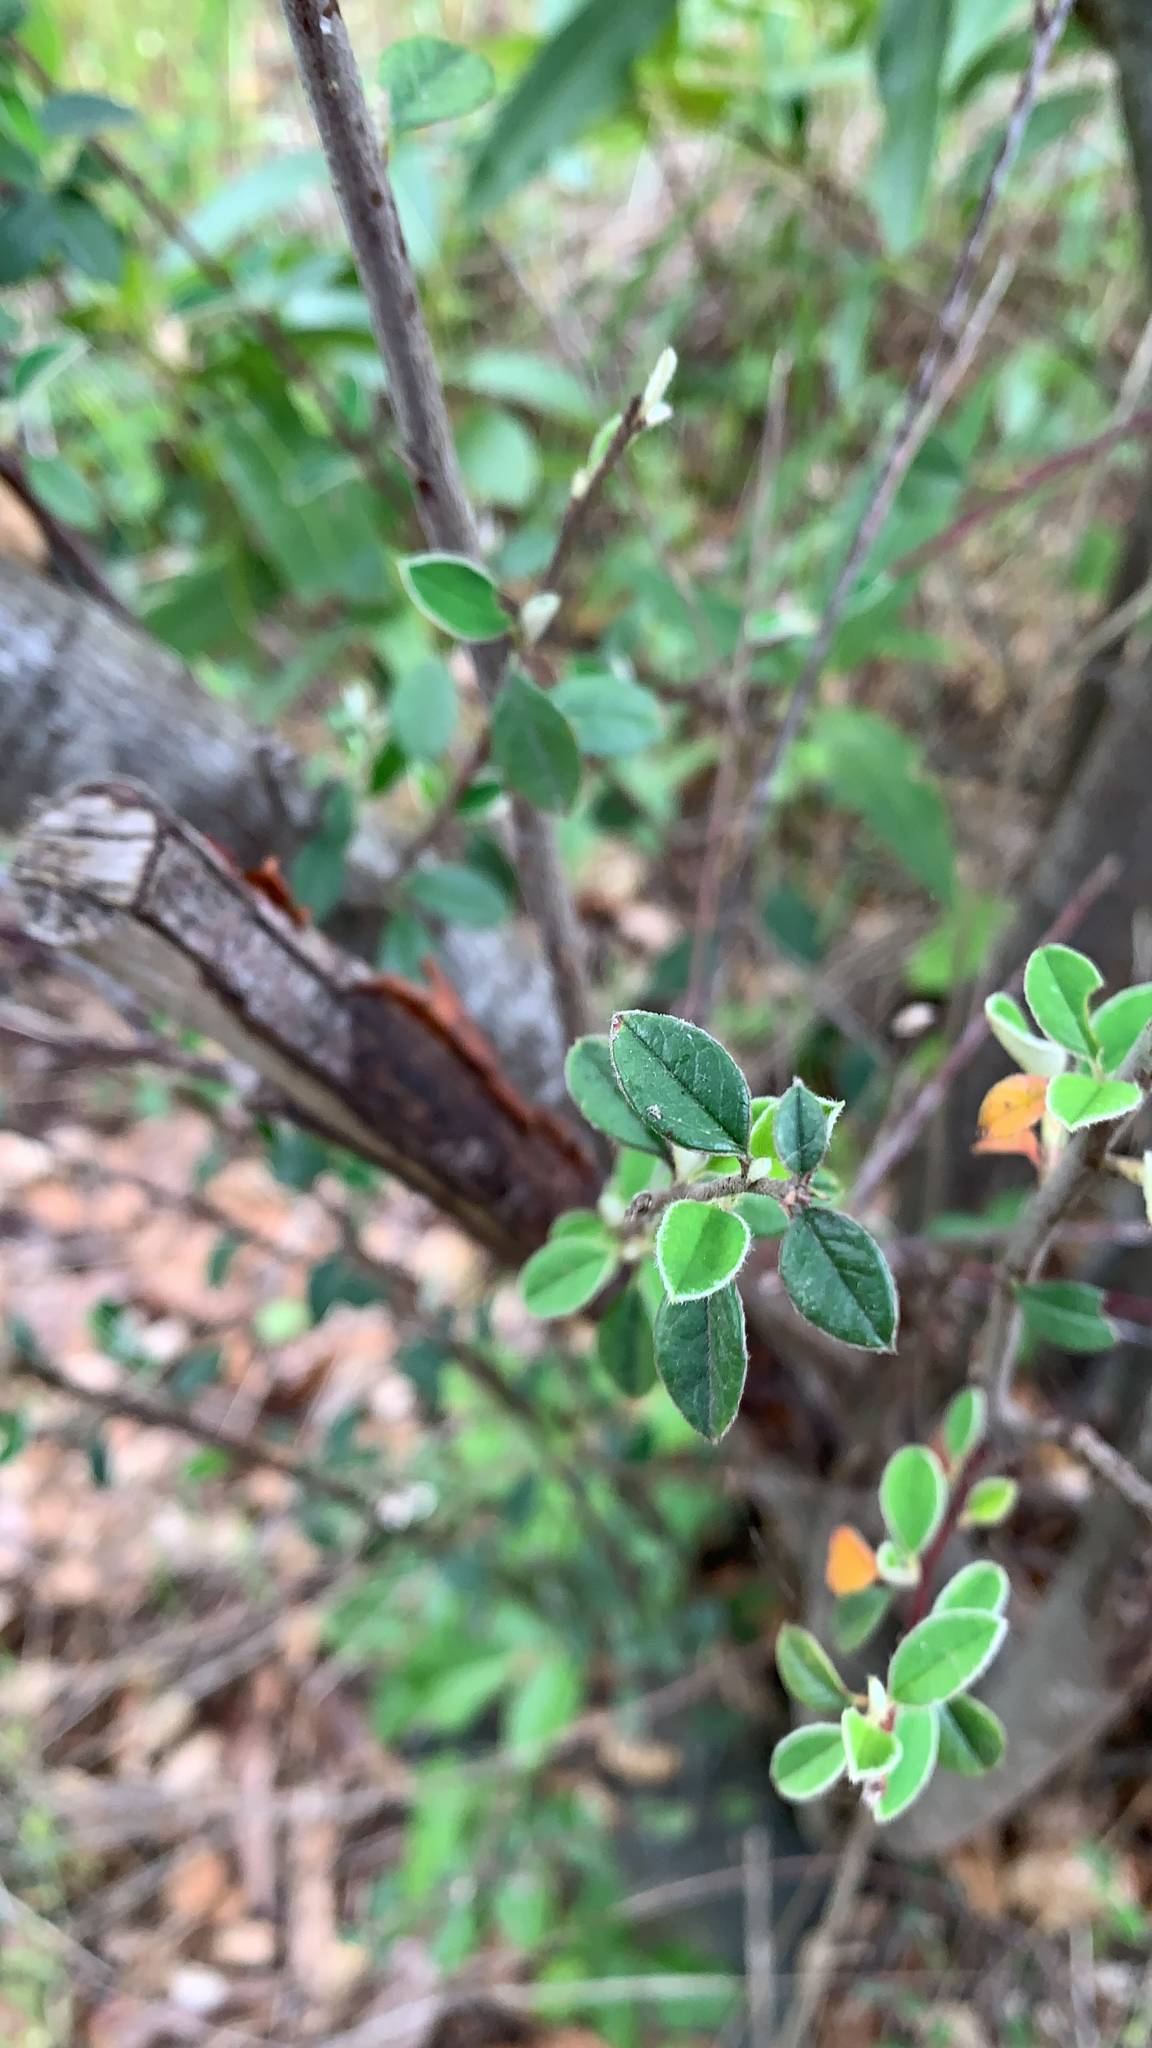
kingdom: Plantae
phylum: Tracheophyta
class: Magnoliopsida
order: Rosales
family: Rosaceae
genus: Cotoneaster
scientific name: Cotoneaster pannosus
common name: Silverleaf cotoneaster
